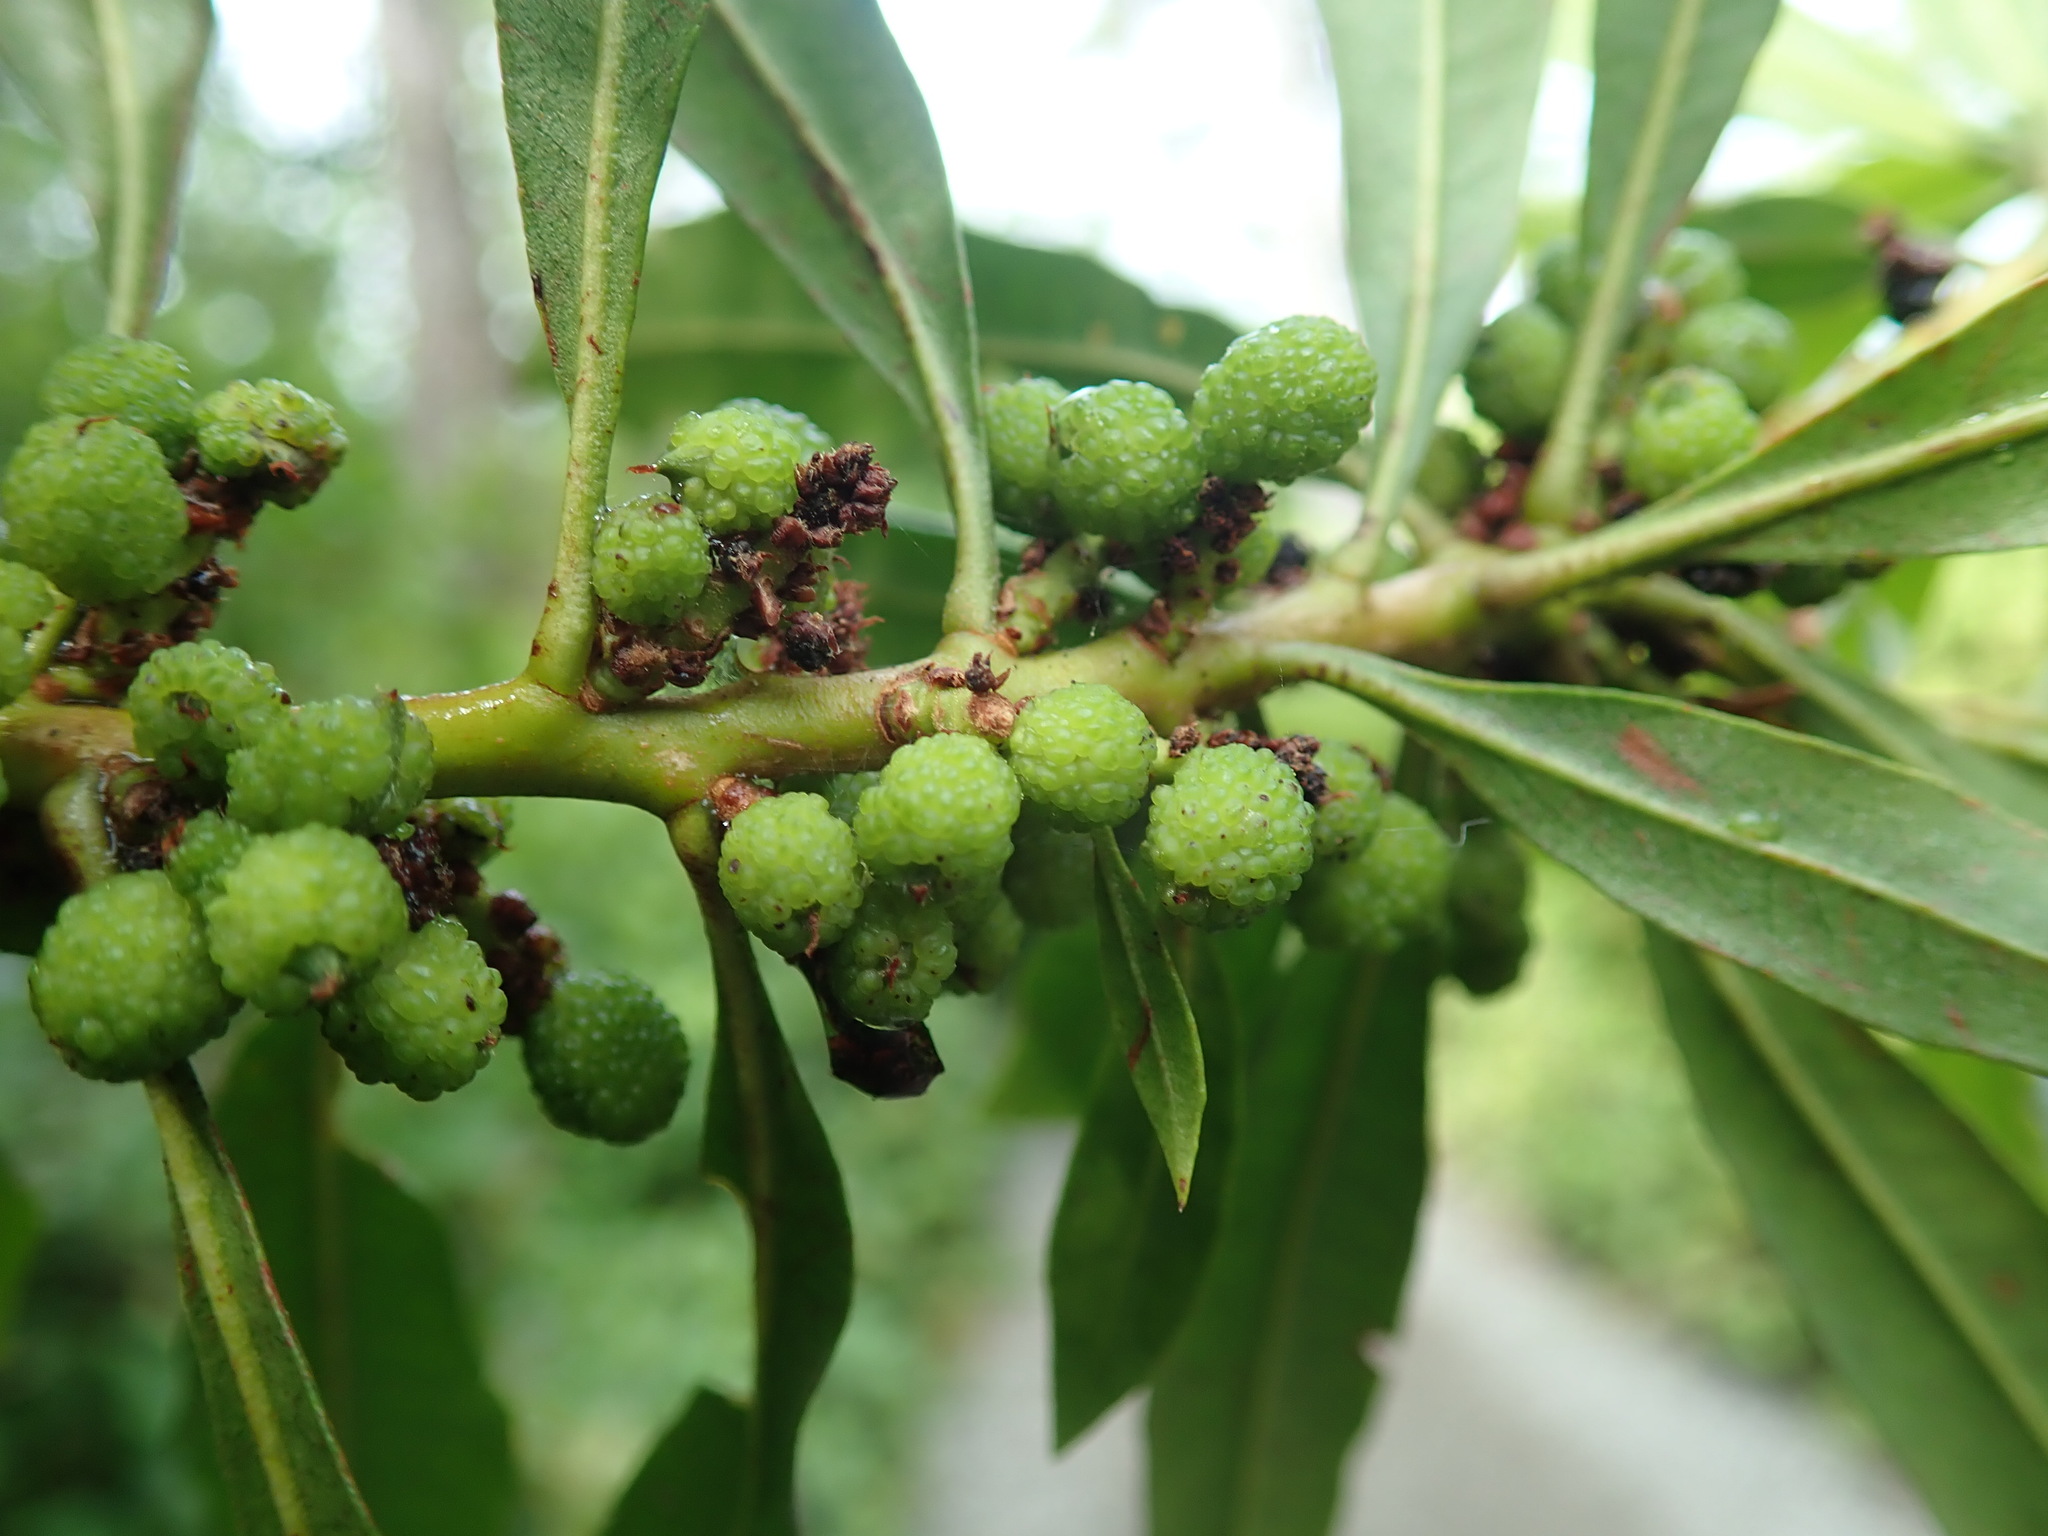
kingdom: Plantae
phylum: Tracheophyta
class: Magnoliopsida
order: Fagales
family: Myricaceae
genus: Morella
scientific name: Morella californica
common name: California wax-myrtle
